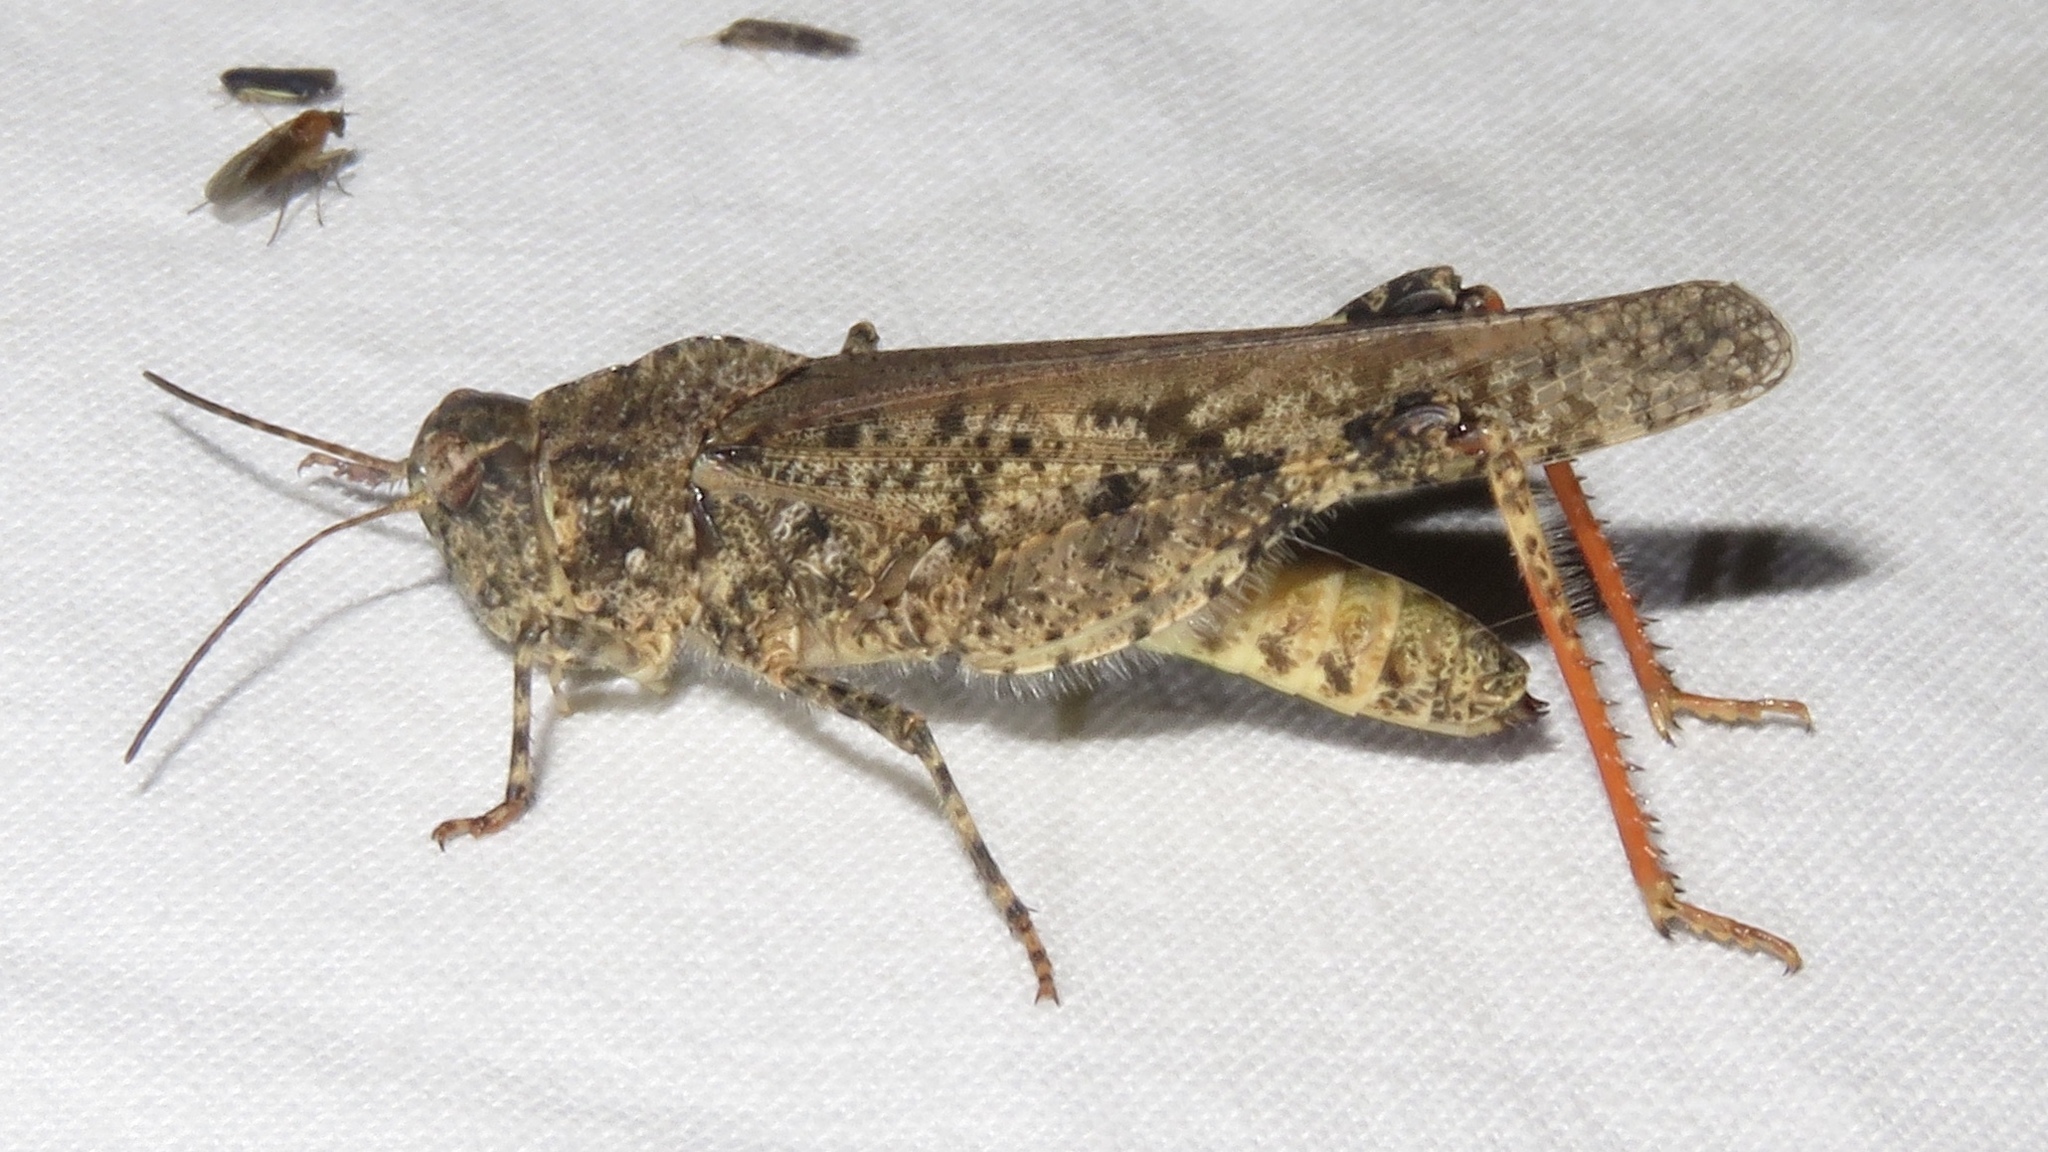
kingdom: Animalia
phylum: Arthropoda
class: Insecta
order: Orthoptera
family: Acrididae
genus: Spharagemon
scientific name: Spharagemon collare
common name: Mottled sand grasshopper
